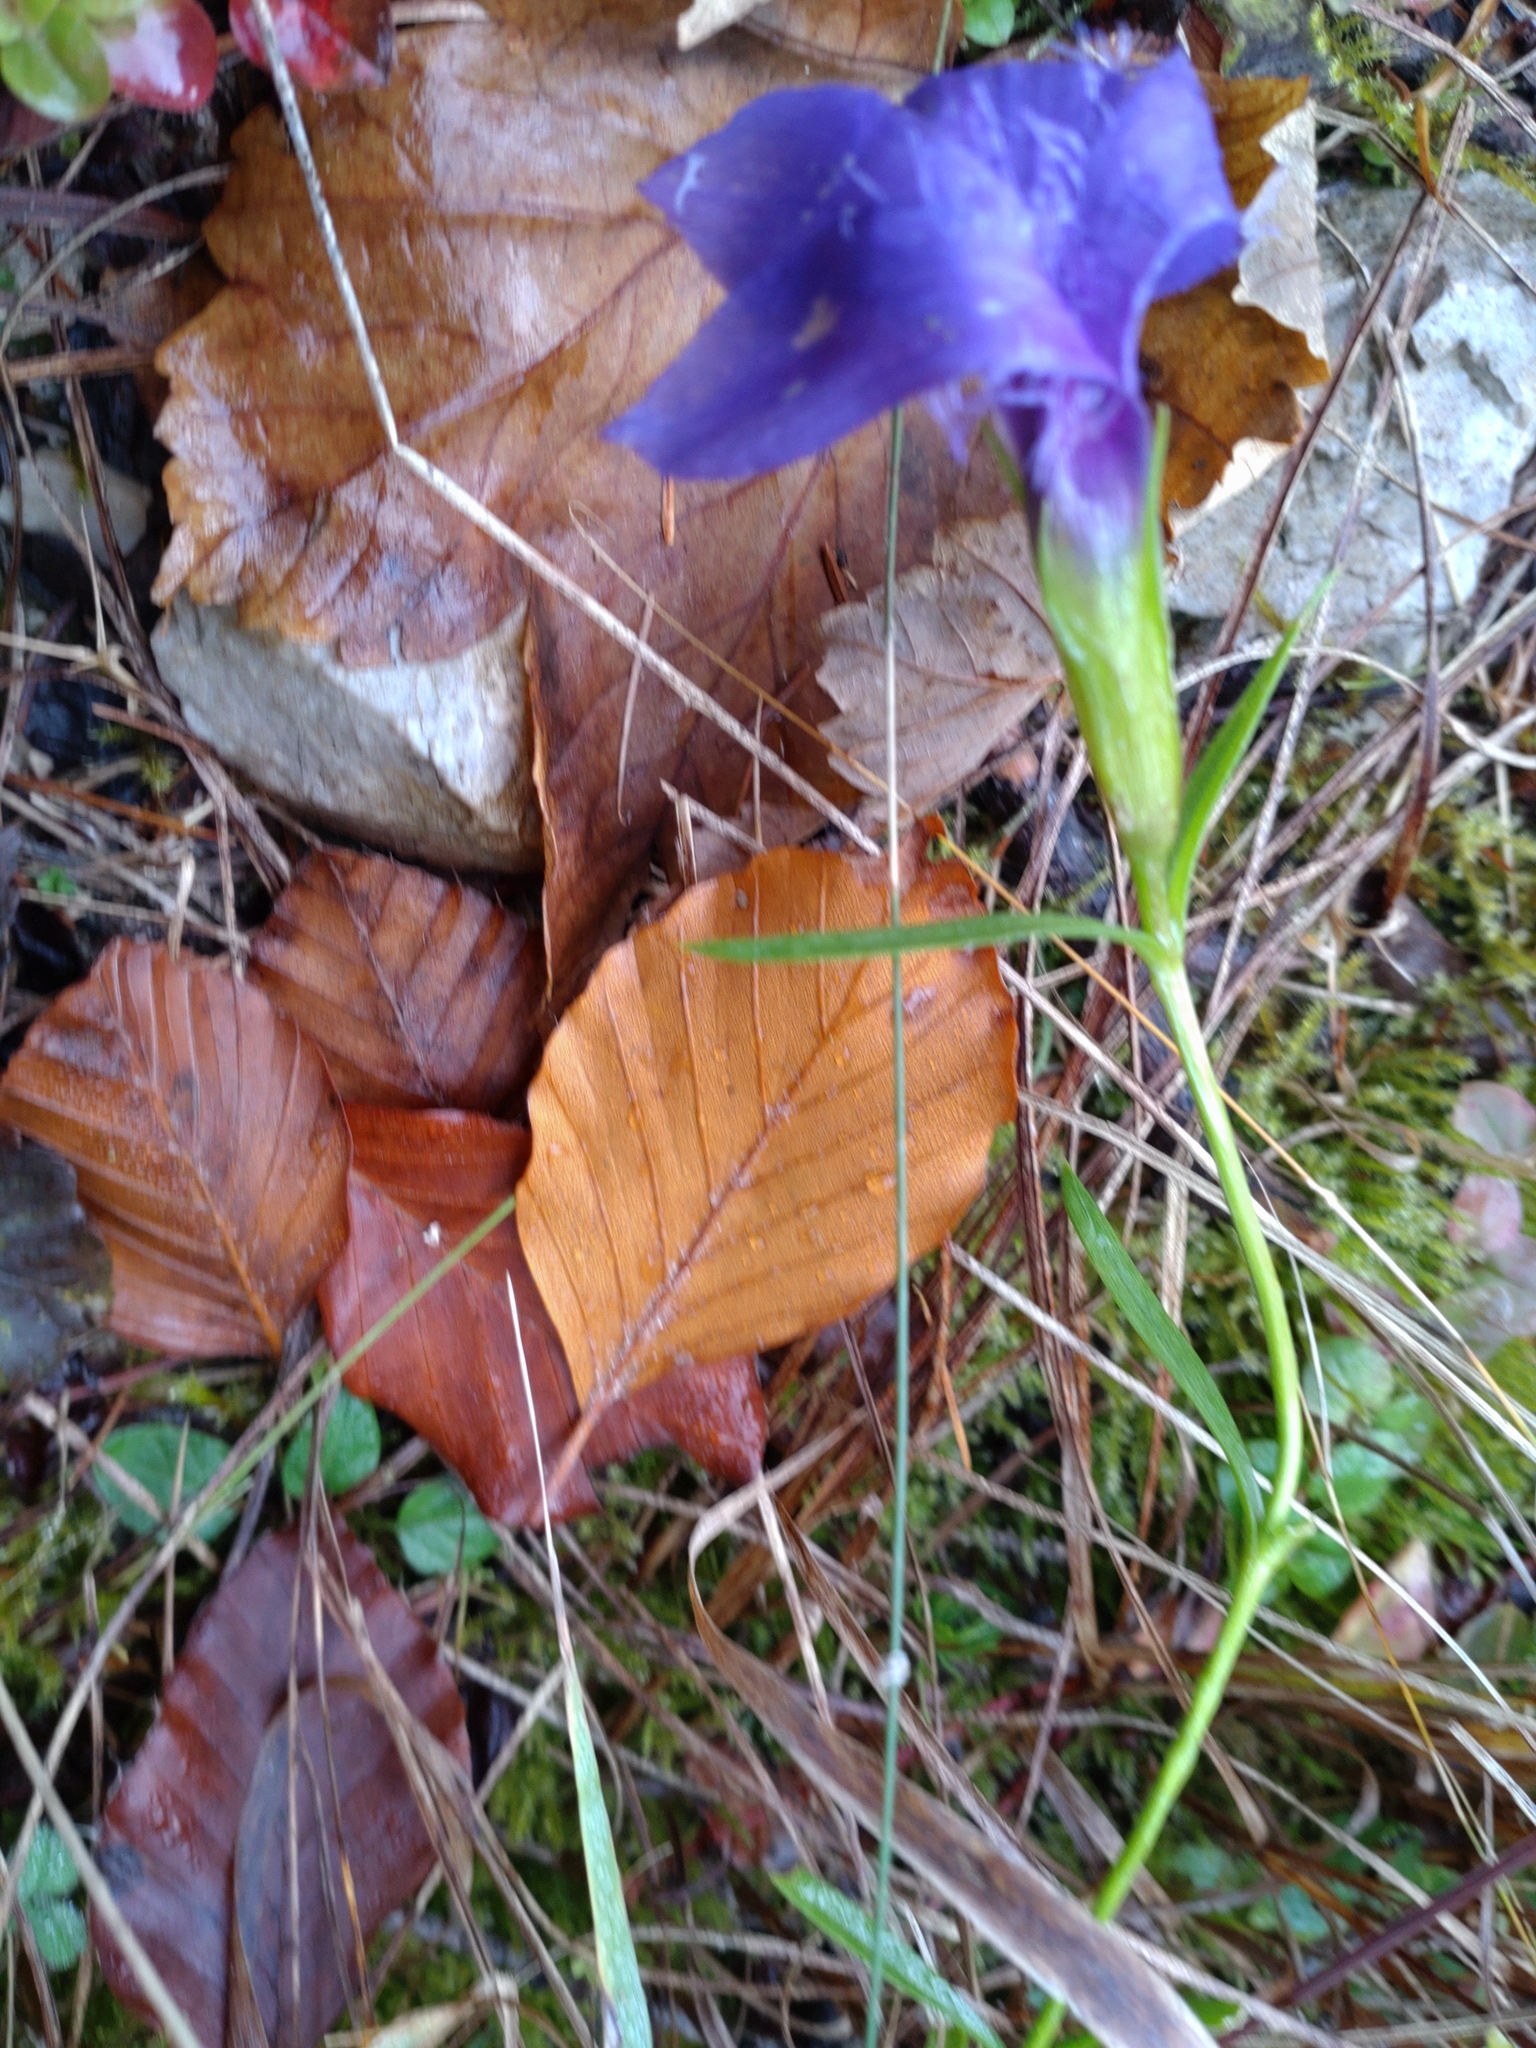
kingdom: Plantae
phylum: Tracheophyta
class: Magnoliopsida
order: Gentianales
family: Gentianaceae
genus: Gentianopsis
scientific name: Gentianopsis ciliata
